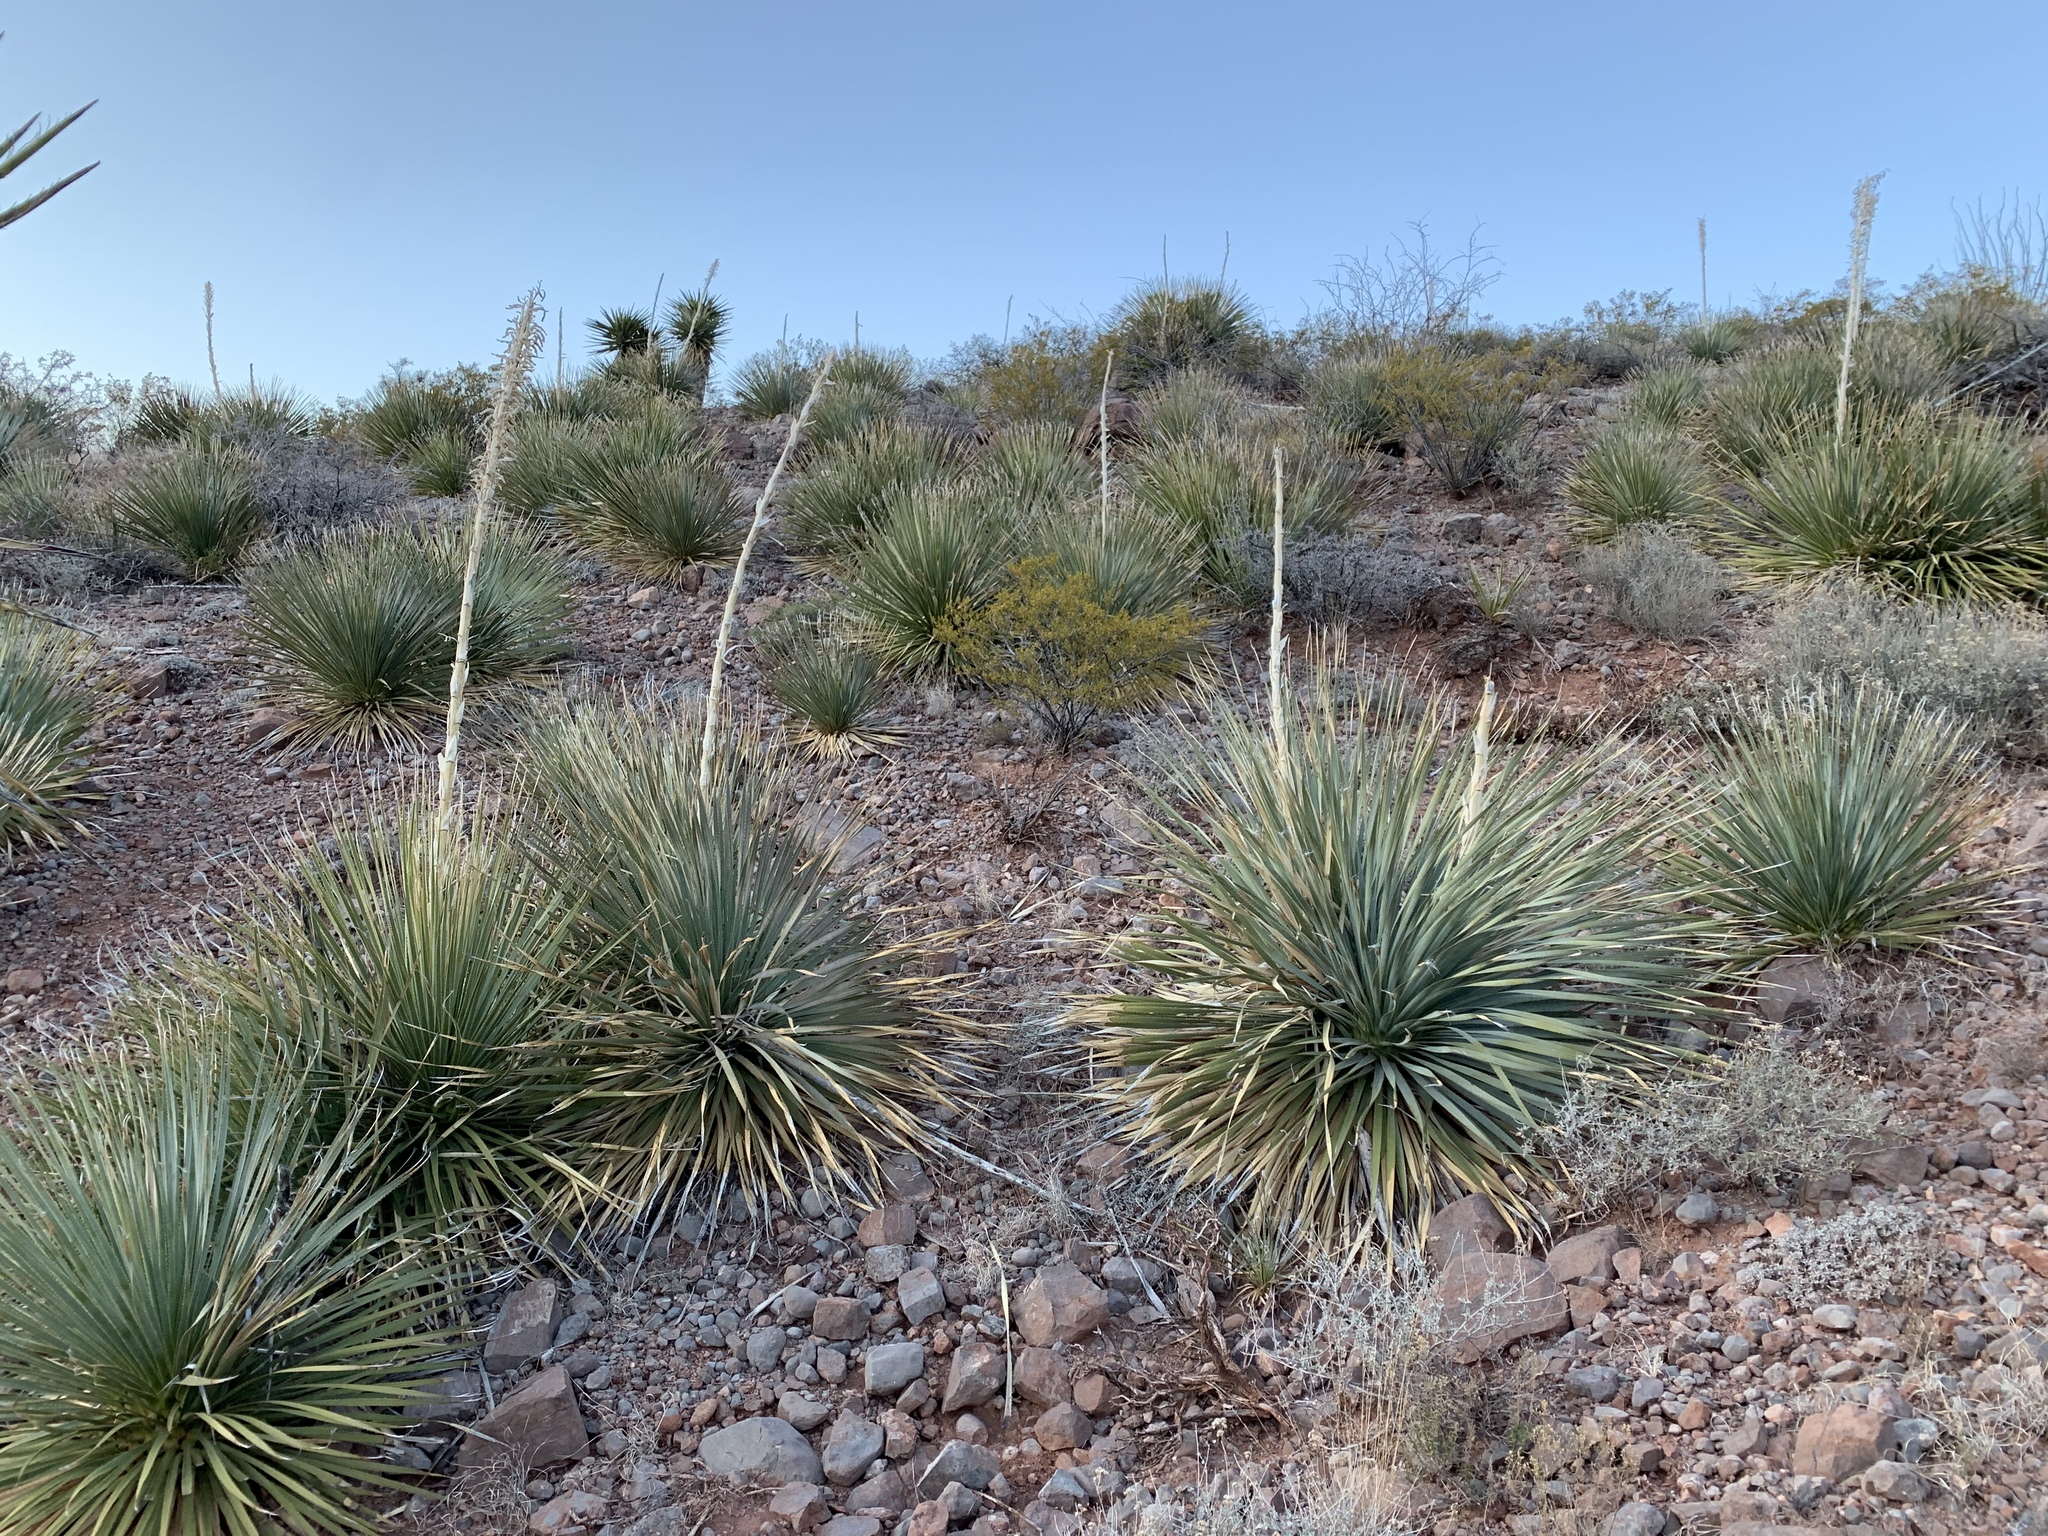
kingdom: Plantae
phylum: Tracheophyta
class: Liliopsida
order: Asparagales
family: Asparagaceae
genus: Dasylirion
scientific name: Dasylirion wheeleri
